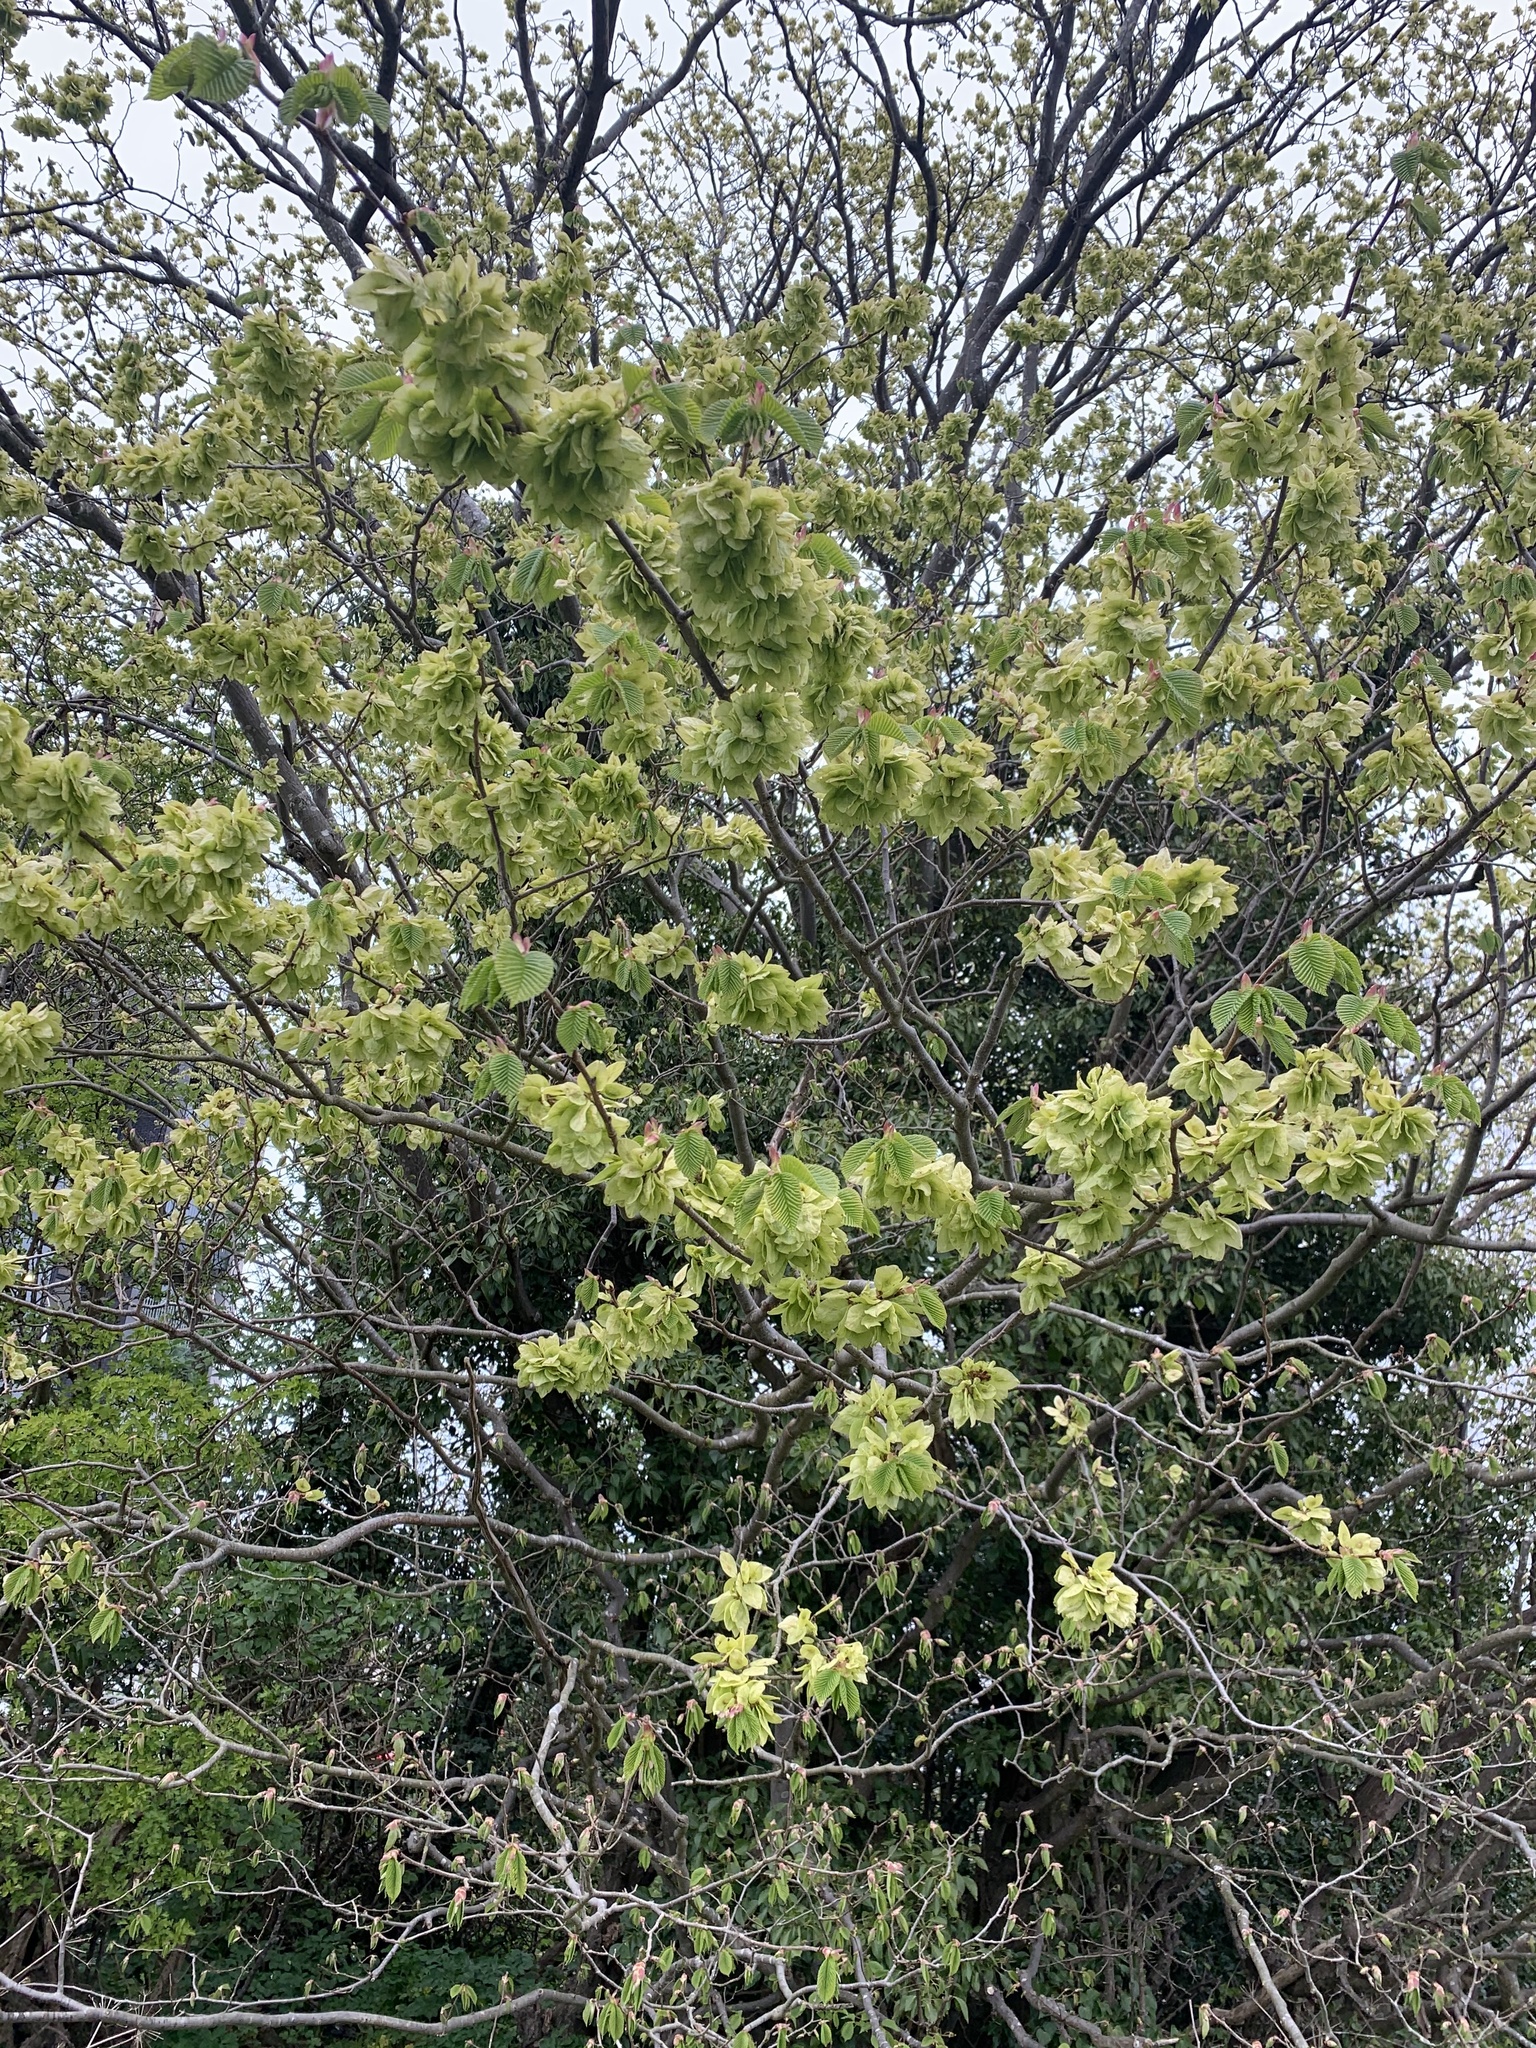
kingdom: Plantae
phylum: Tracheophyta
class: Magnoliopsida
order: Rosales
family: Ulmaceae
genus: Ulmus
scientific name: Ulmus glabra
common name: Wych elm
